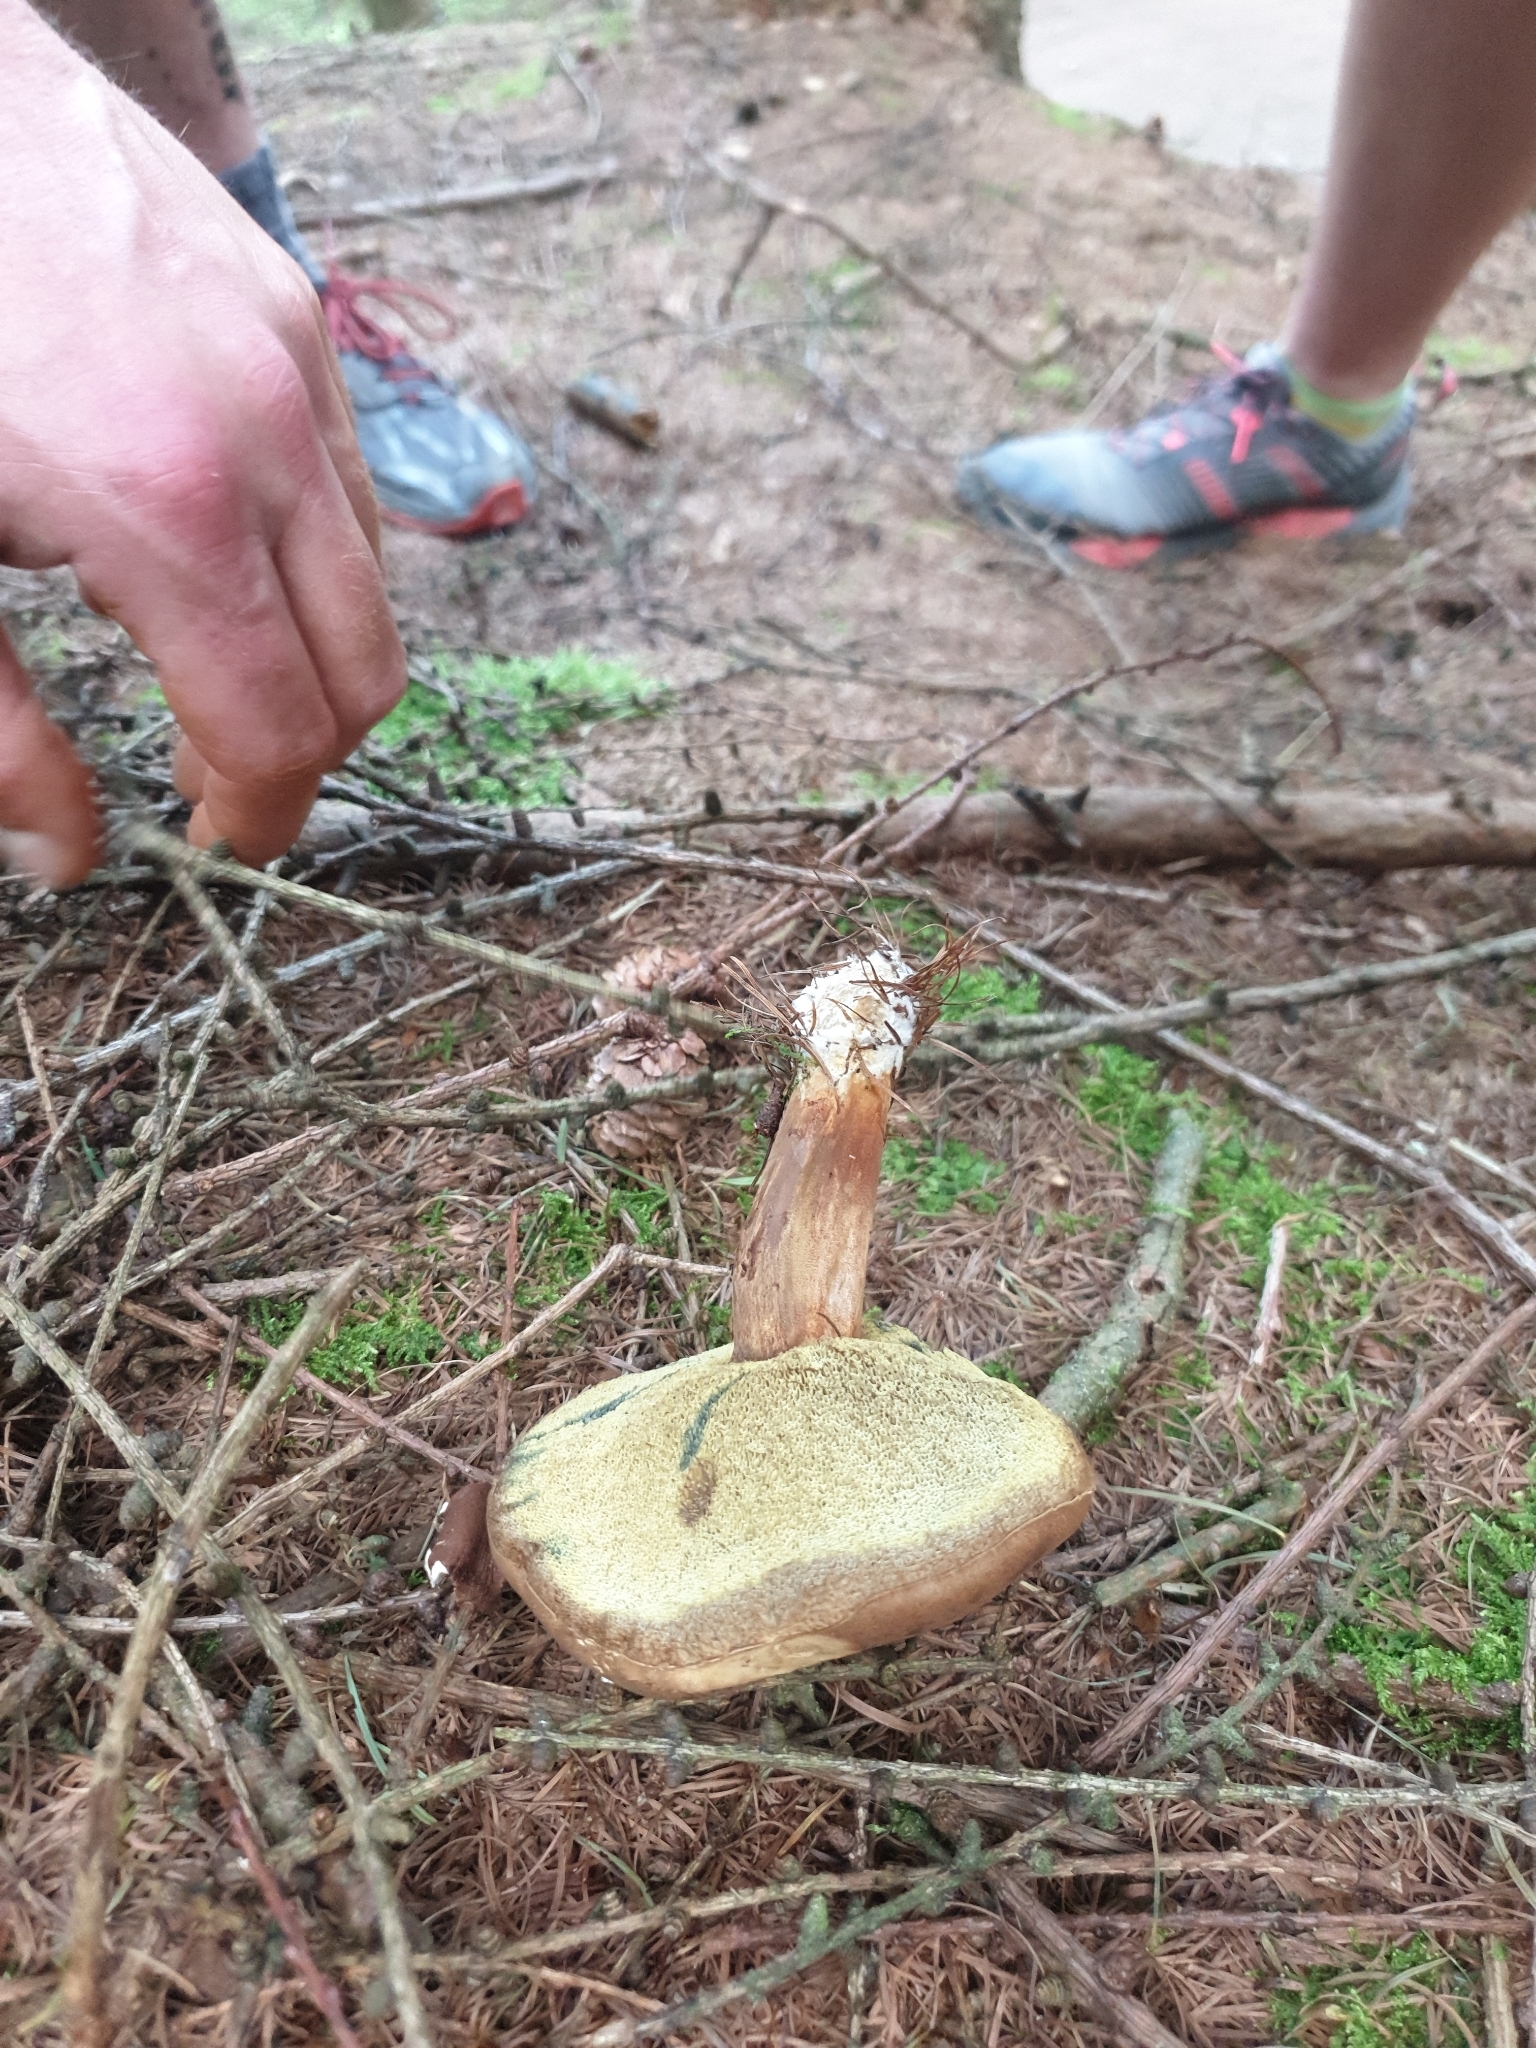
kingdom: Fungi
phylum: Basidiomycota
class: Agaricomycetes
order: Boletales
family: Boletaceae
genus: Imleria
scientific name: Imleria badia
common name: Bay bolete
